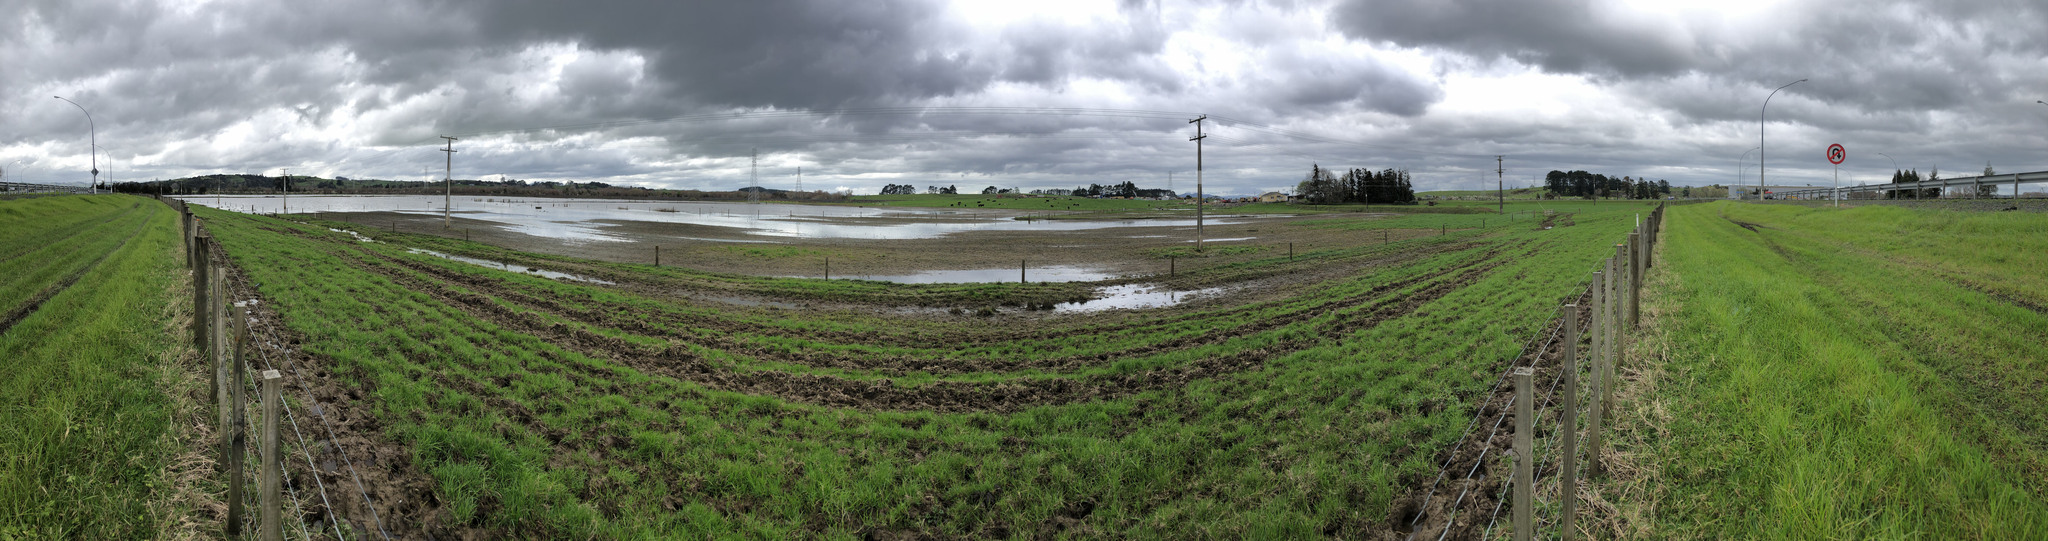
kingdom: Animalia
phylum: Chordata
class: Aves
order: Charadriiformes
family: Laridae
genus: Hydroprogne
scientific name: Hydroprogne caspia
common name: Caspian tern
